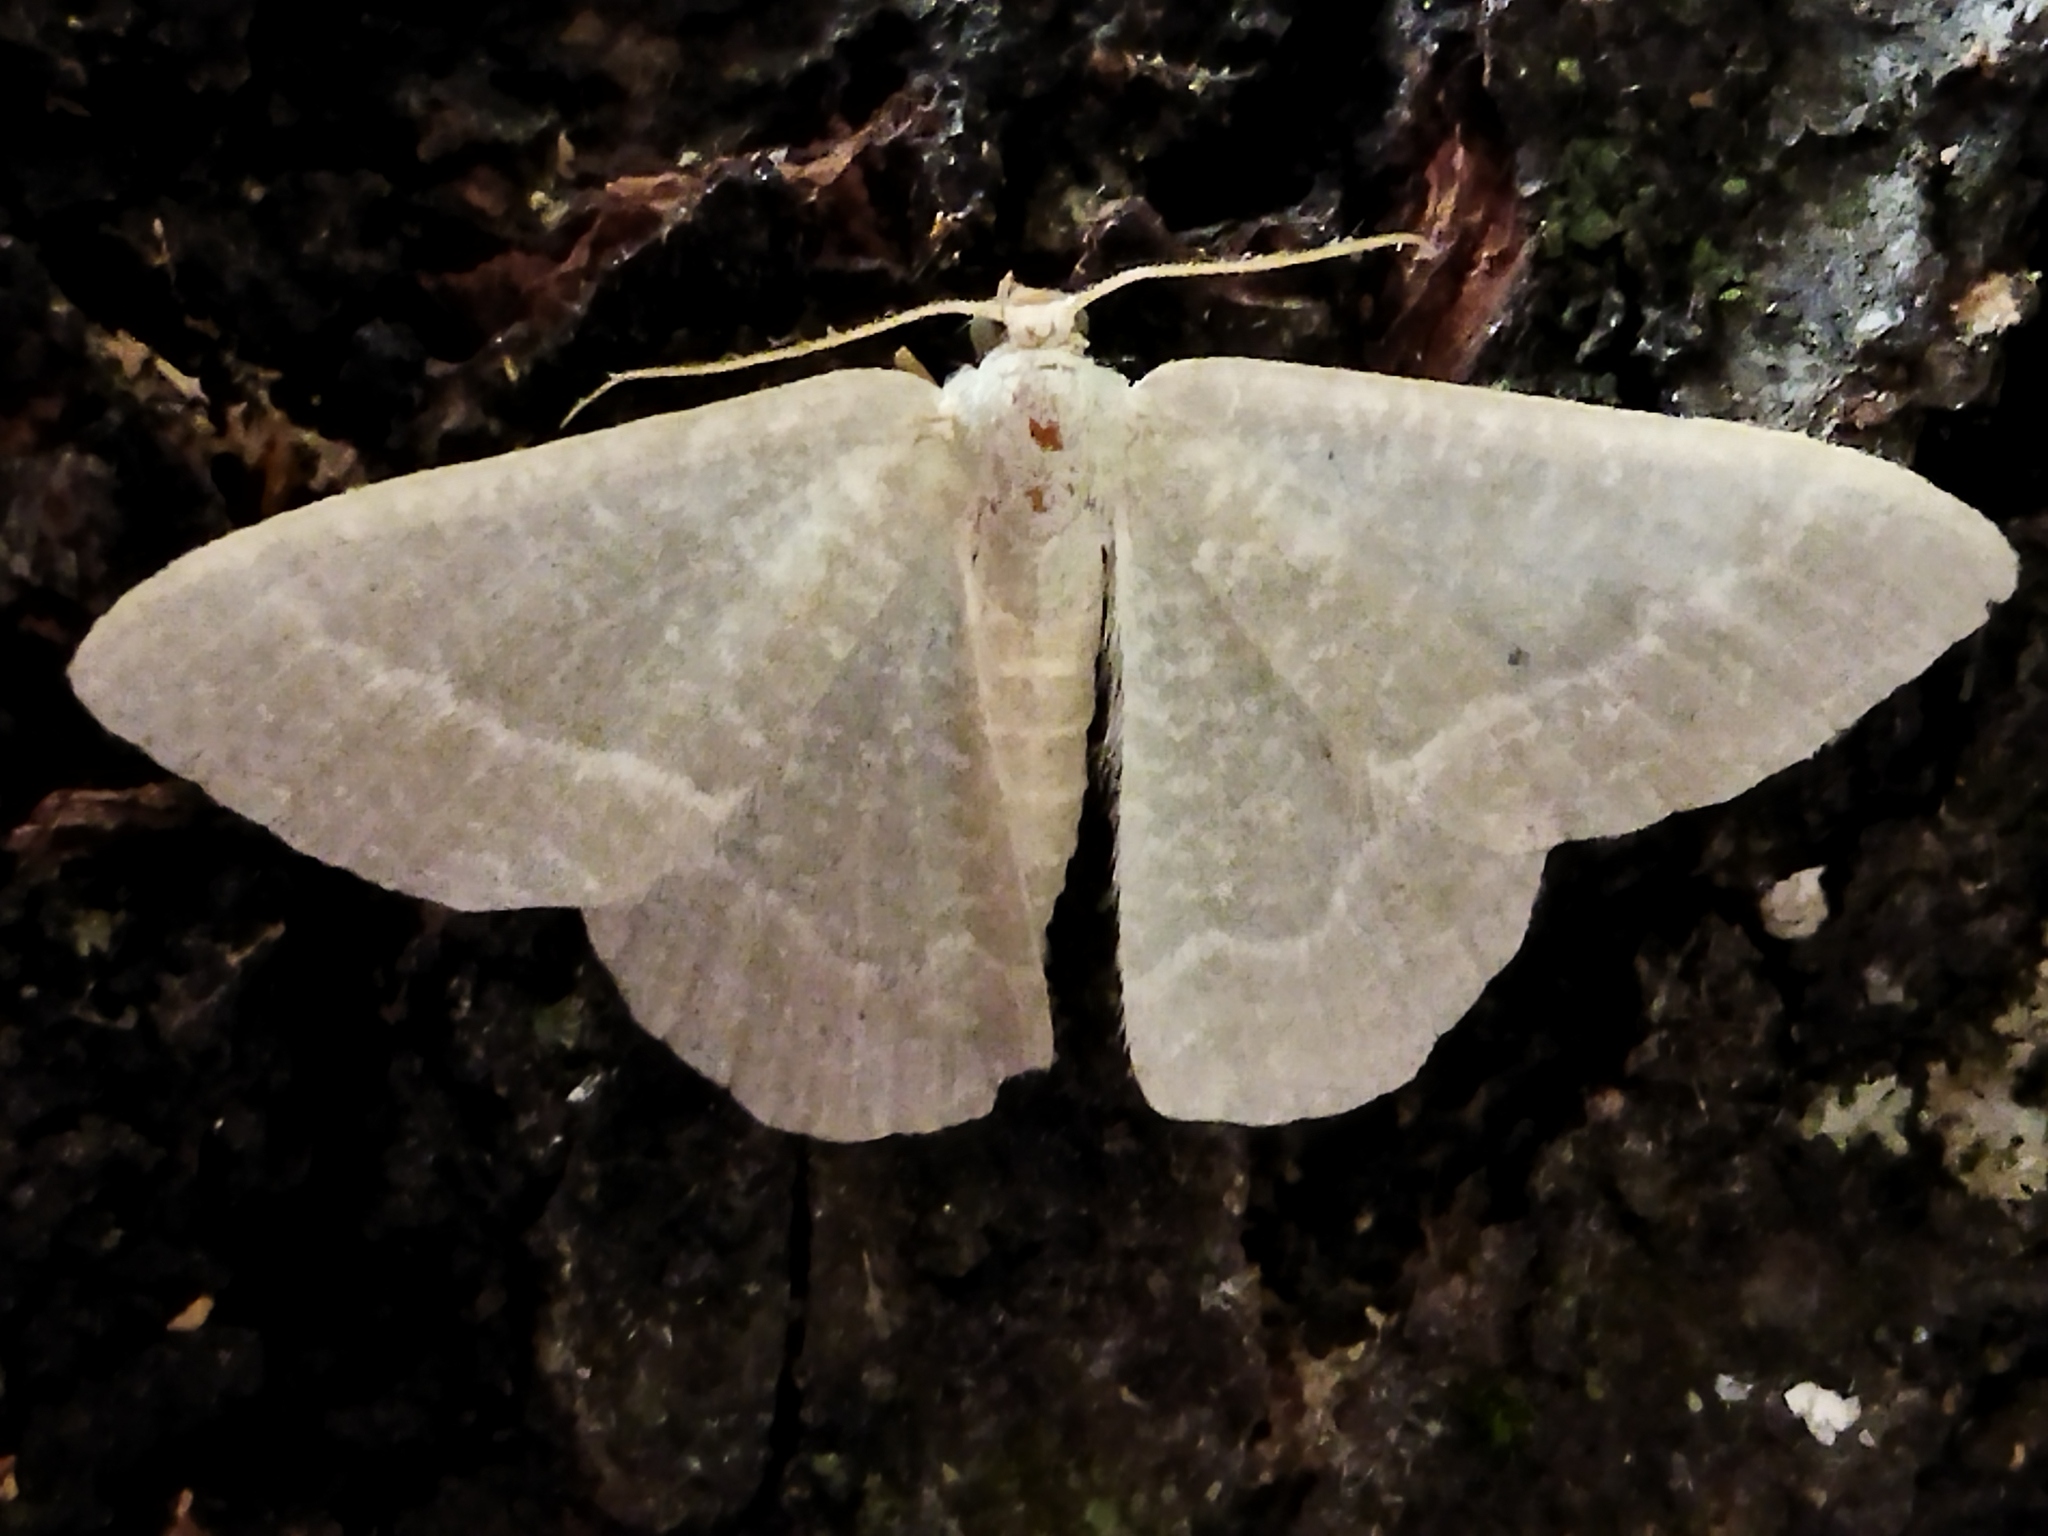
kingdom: Animalia
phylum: Arthropoda
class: Insecta
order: Lepidoptera
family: Geometridae
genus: Chlorissa
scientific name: Chlorissa etruscaria
